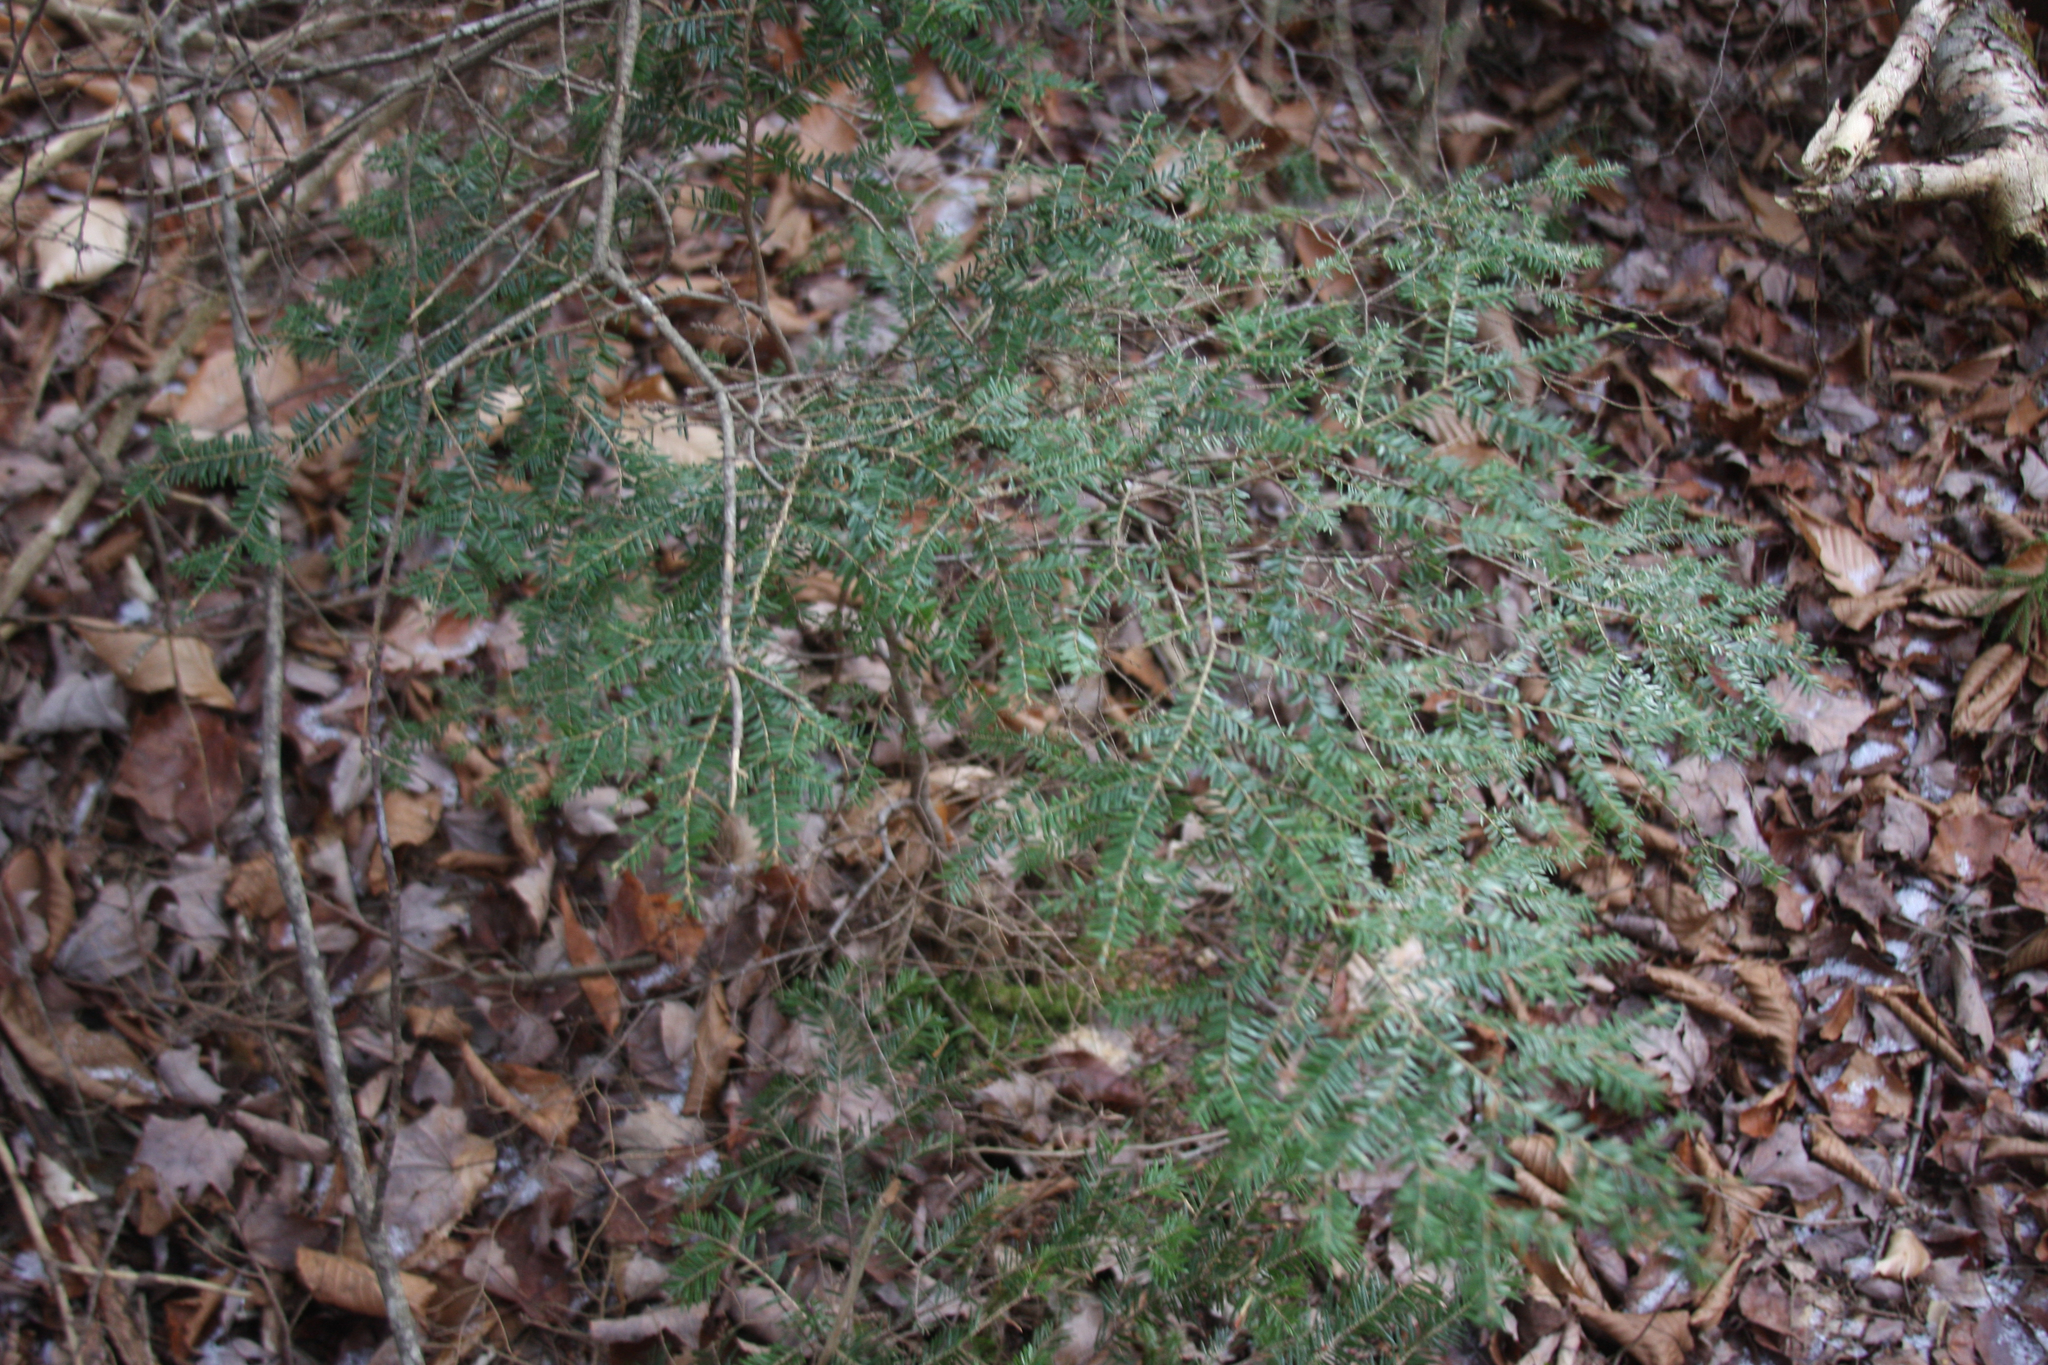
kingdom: Plantae
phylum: Tracheophyta
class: Pinopsida
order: Pinales
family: Pinaceae
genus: Tsuga
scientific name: Tsuga canadensis
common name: Eastern hemlock
